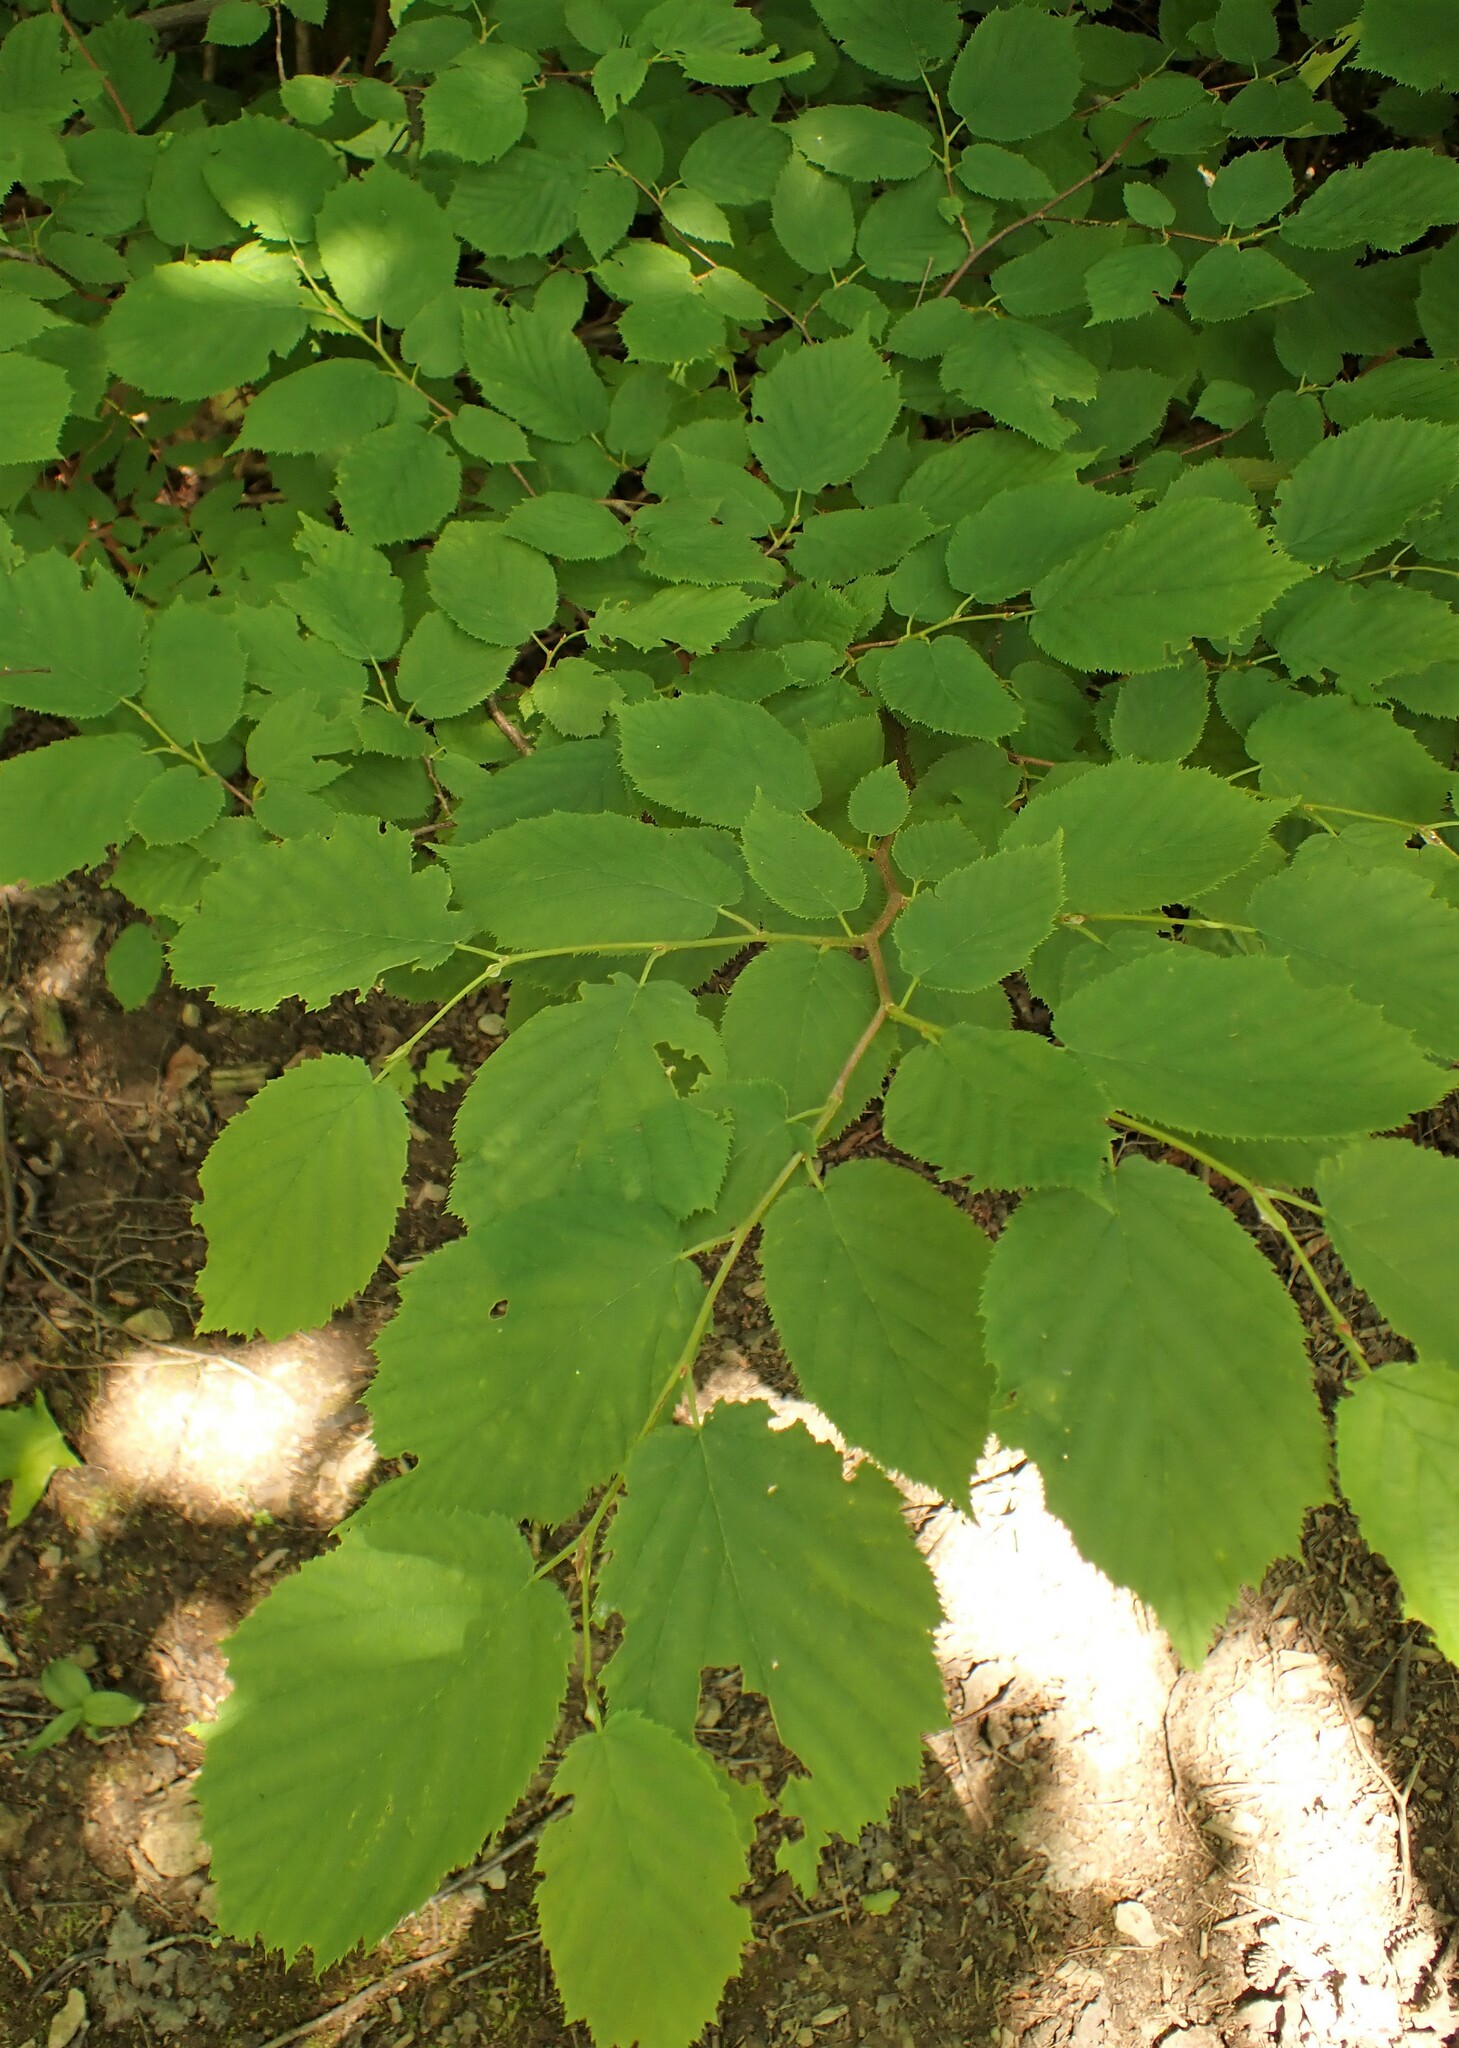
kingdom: Plantae
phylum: Tracheophyta
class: Magnoliopsida
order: Fagales
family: Betulaceae
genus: Corylus
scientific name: Corylus cornuta
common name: Beaked hazel
